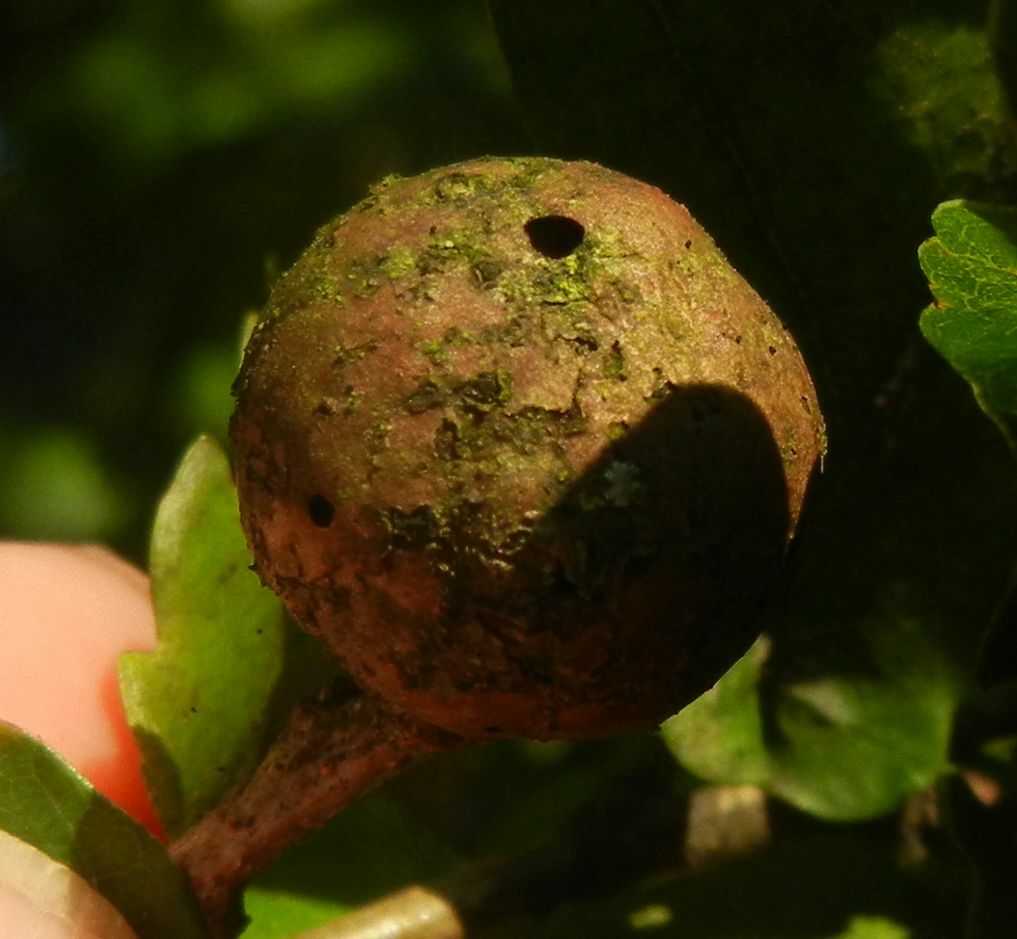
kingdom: Animalia
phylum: Arthropoda
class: Insecta
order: Hymenoptera
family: Cynipidae
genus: Andricus
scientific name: Andricus kollari
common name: Marble gall
